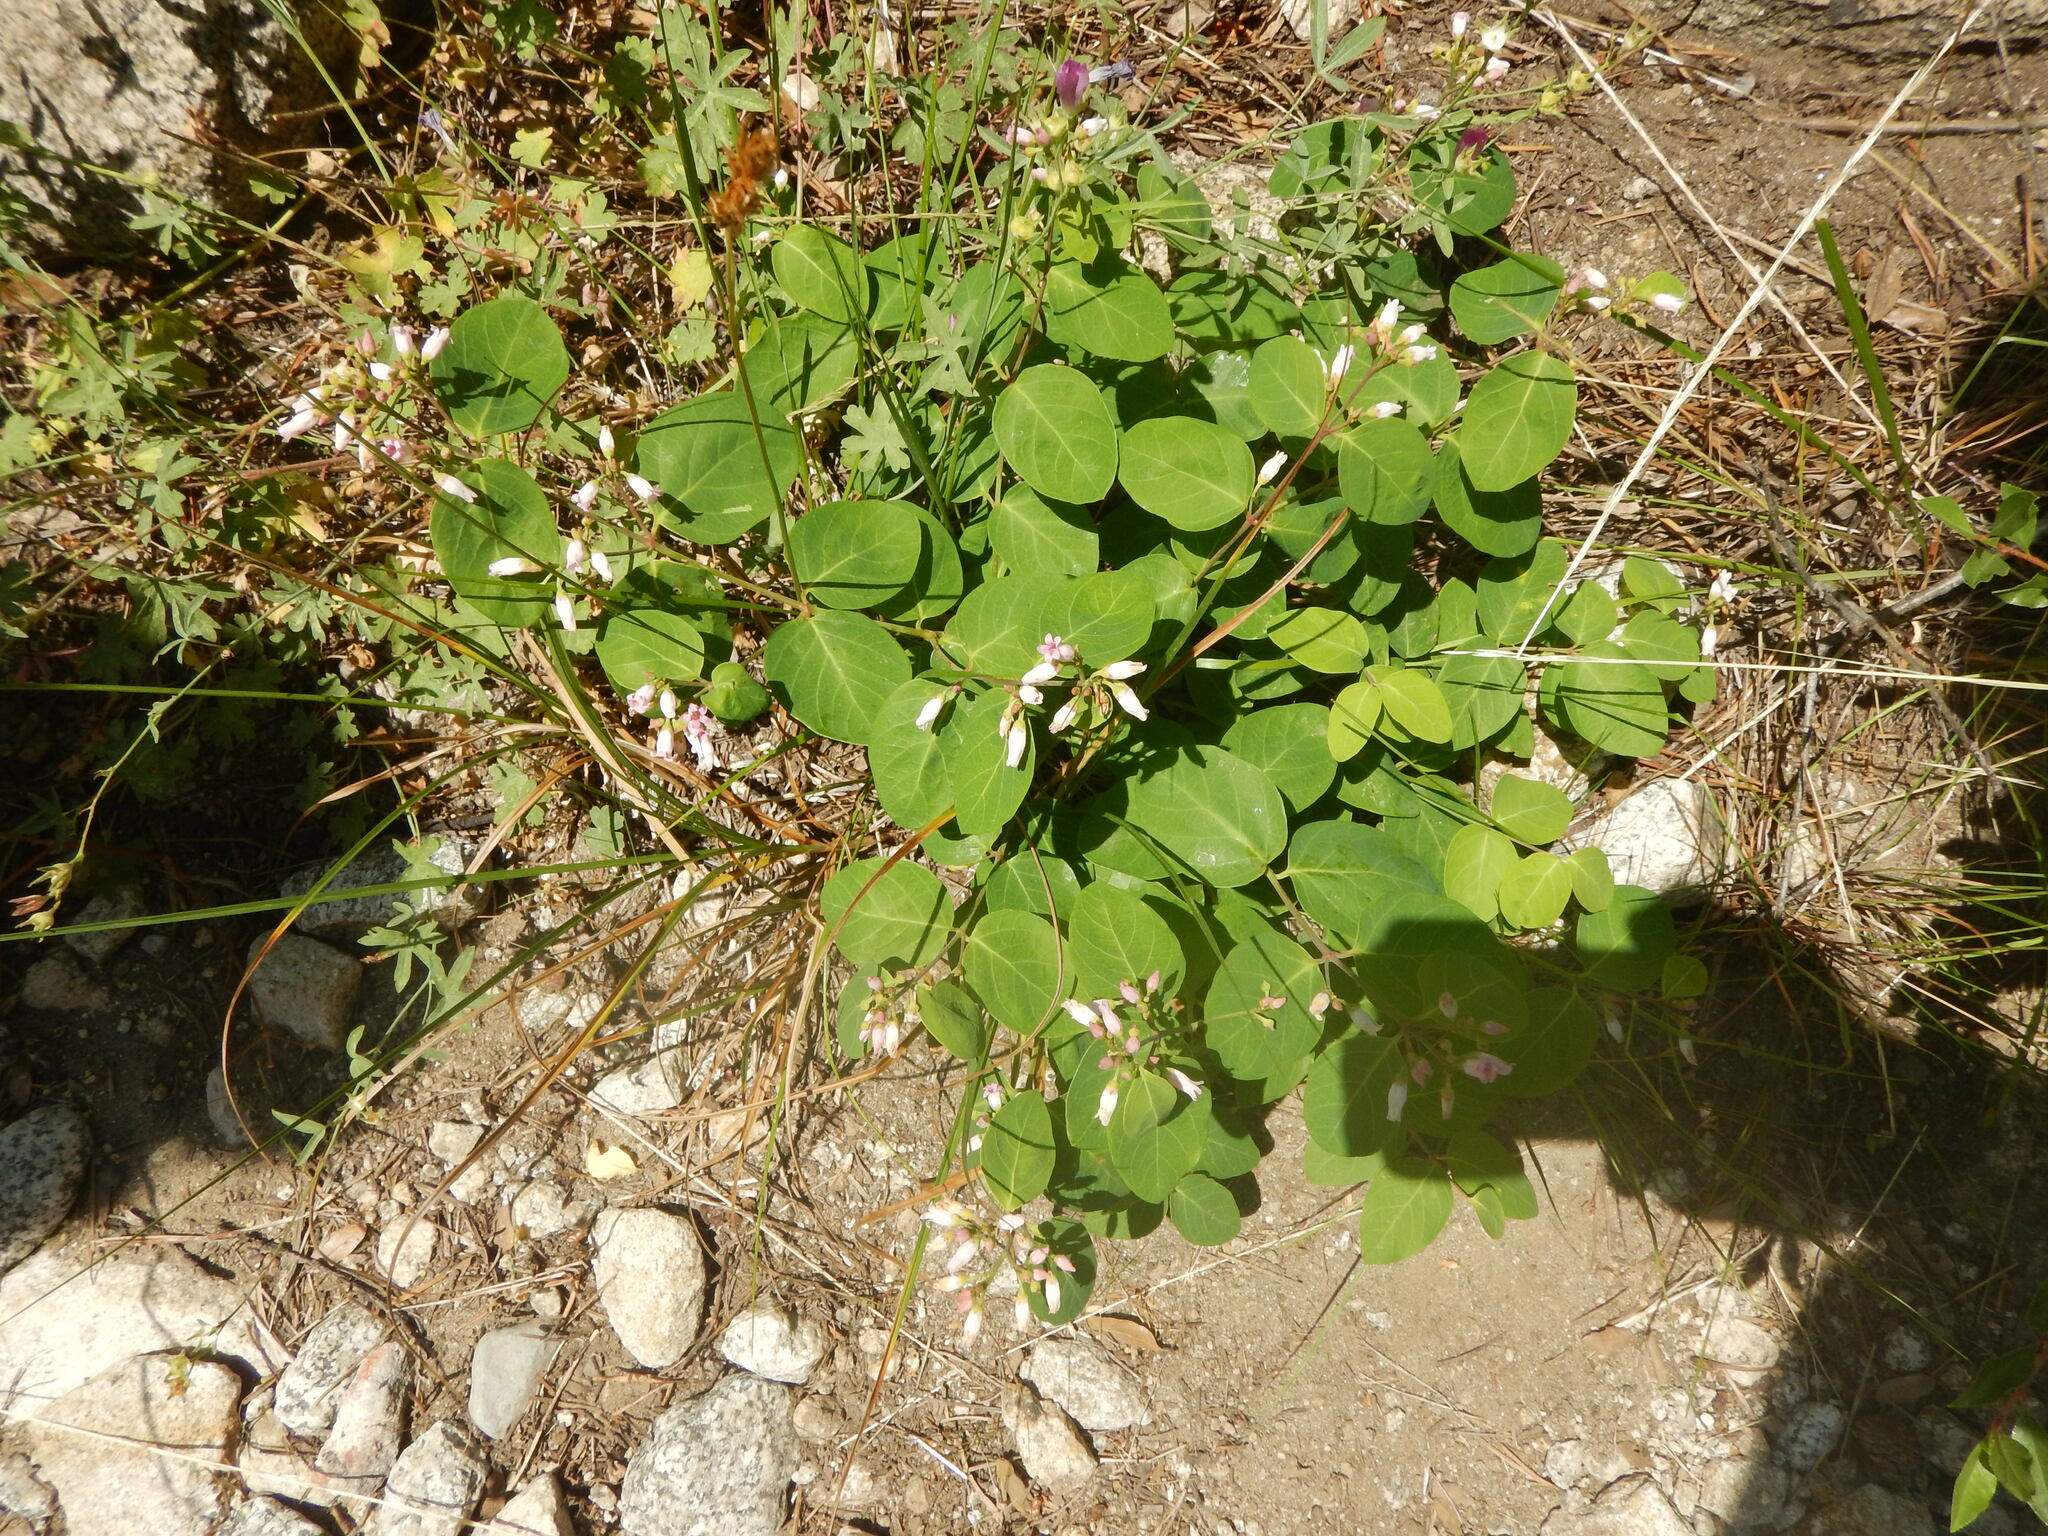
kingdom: Plantae
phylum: Tracheophyta
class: Magnoliopsida
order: Gentianales
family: Apocynaceae
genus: Apocynum
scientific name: Apocynum androsaemifolium
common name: Spreading dogbane
